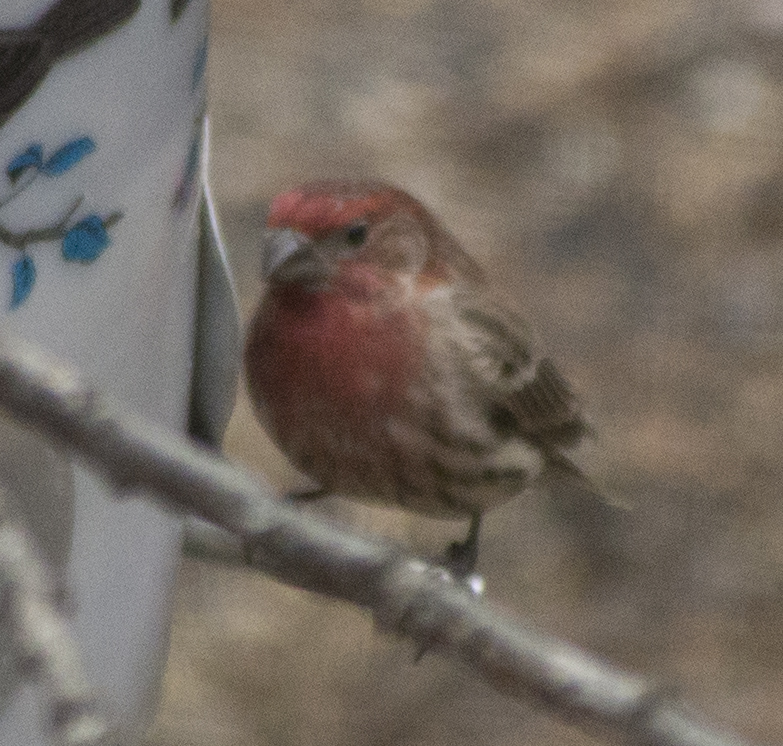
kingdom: Animalia
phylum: Chordata
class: Aves
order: Passeriformes
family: Fringillidae
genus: Haemorhous
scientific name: Haemorhous mexicanus
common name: House finch
